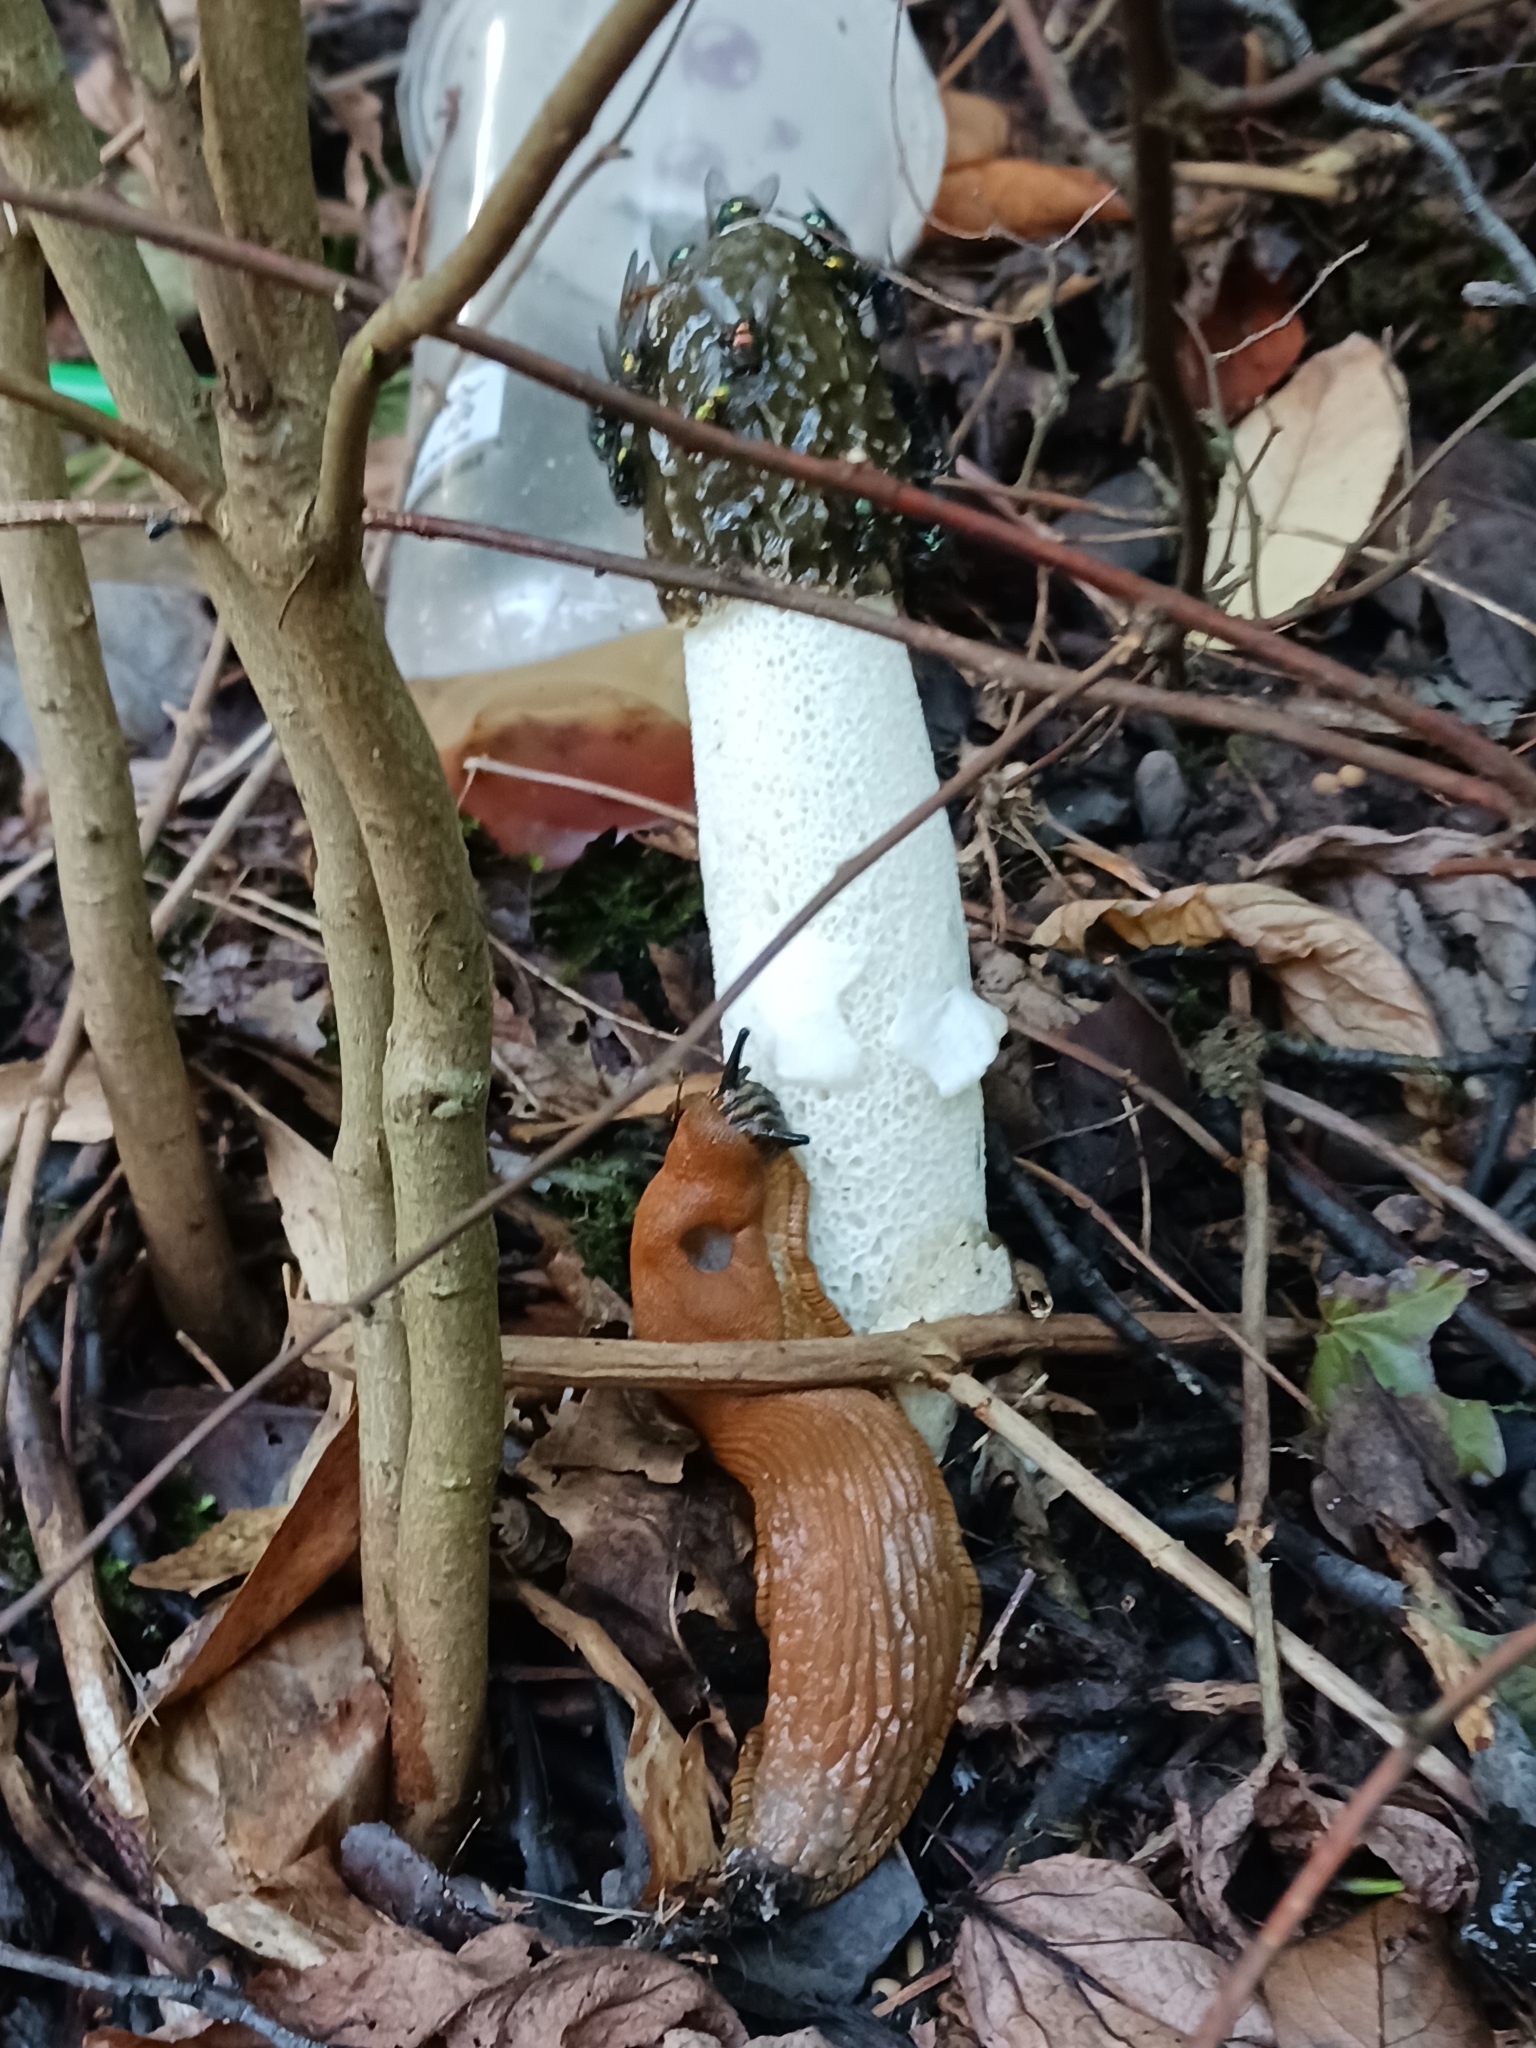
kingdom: Fungi
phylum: Basidiomycota
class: Agaricomycetes
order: Phallales
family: Phallaceae
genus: Phallus
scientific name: Phallus impudicus
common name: Common stinkhorn
